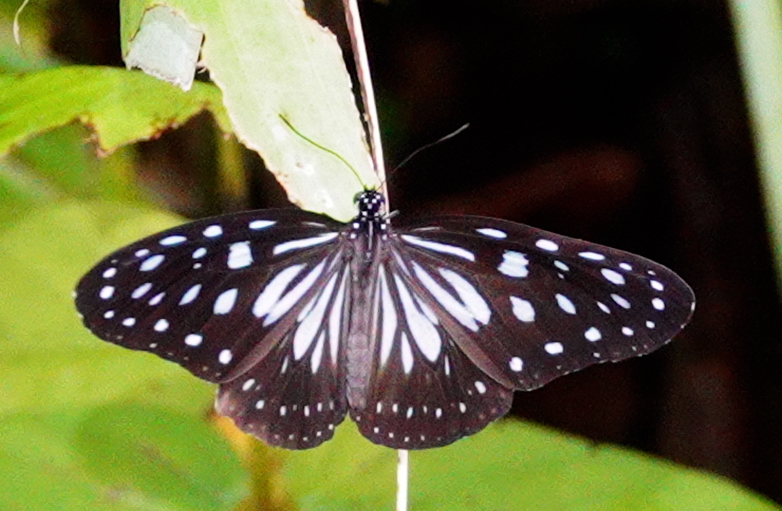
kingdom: Animalia
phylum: Arthropoda
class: Insecta
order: Lepidoptera
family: Nymphalidae
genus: Ideopsis
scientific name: Ideopsis juventa
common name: Grey glassy tiger
